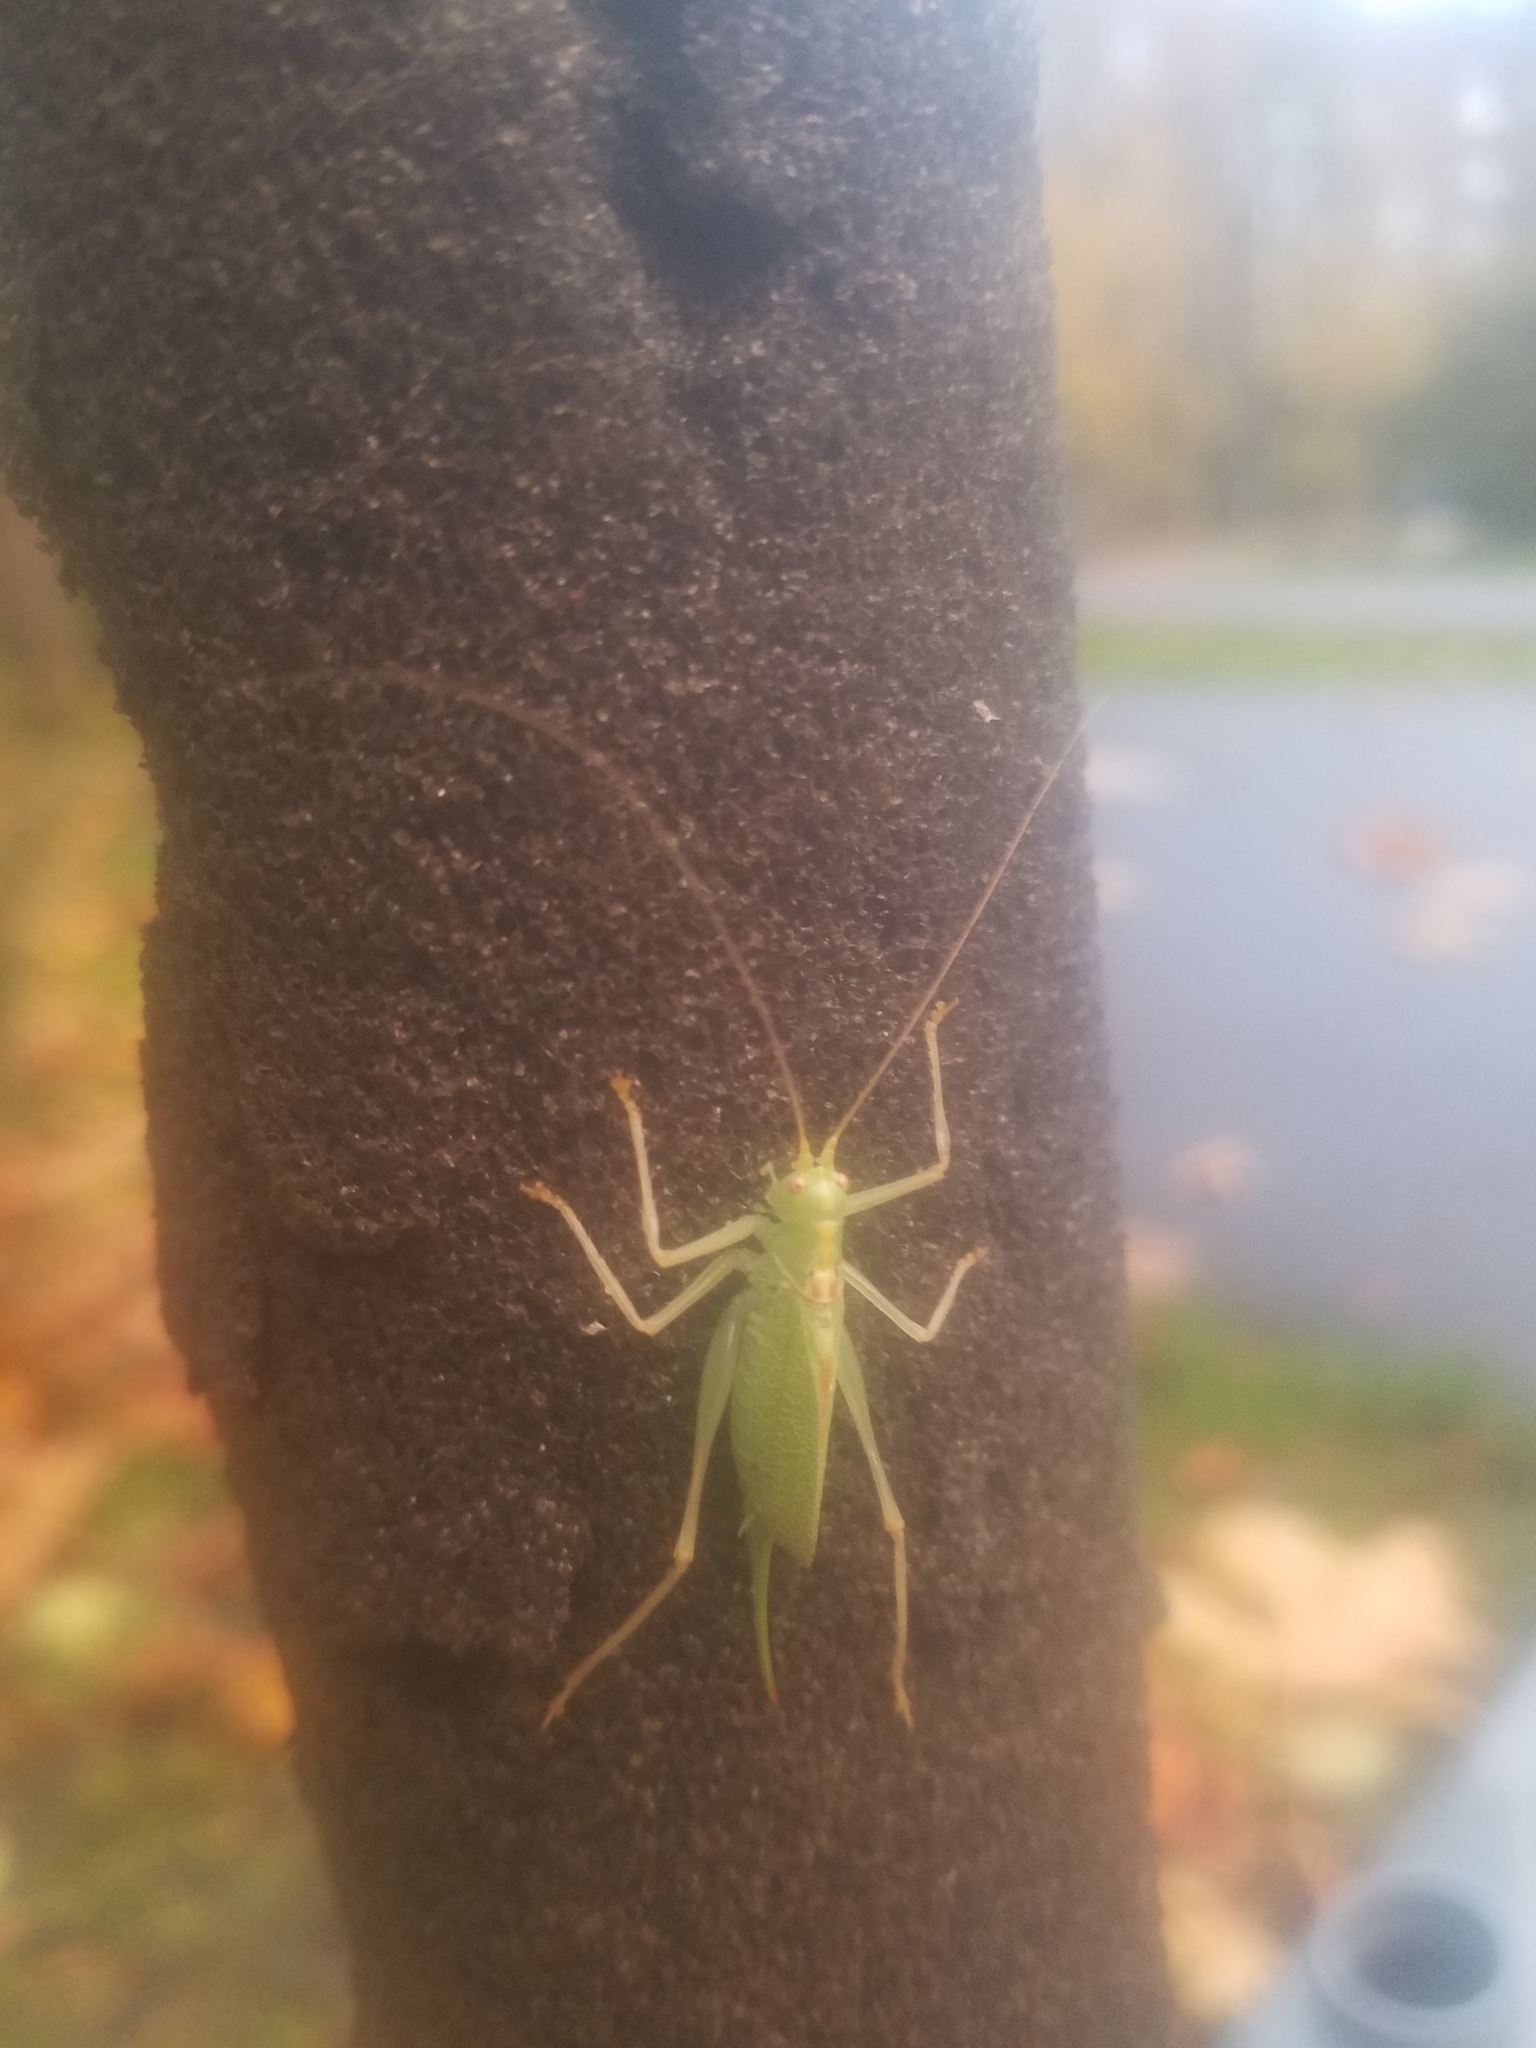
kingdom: Animalia
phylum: Arthropoda
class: Insecta
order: Orthoptera
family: Tettigoniidae
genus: Meconema
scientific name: Meconema thalassinum
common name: Oak bush-cricket
